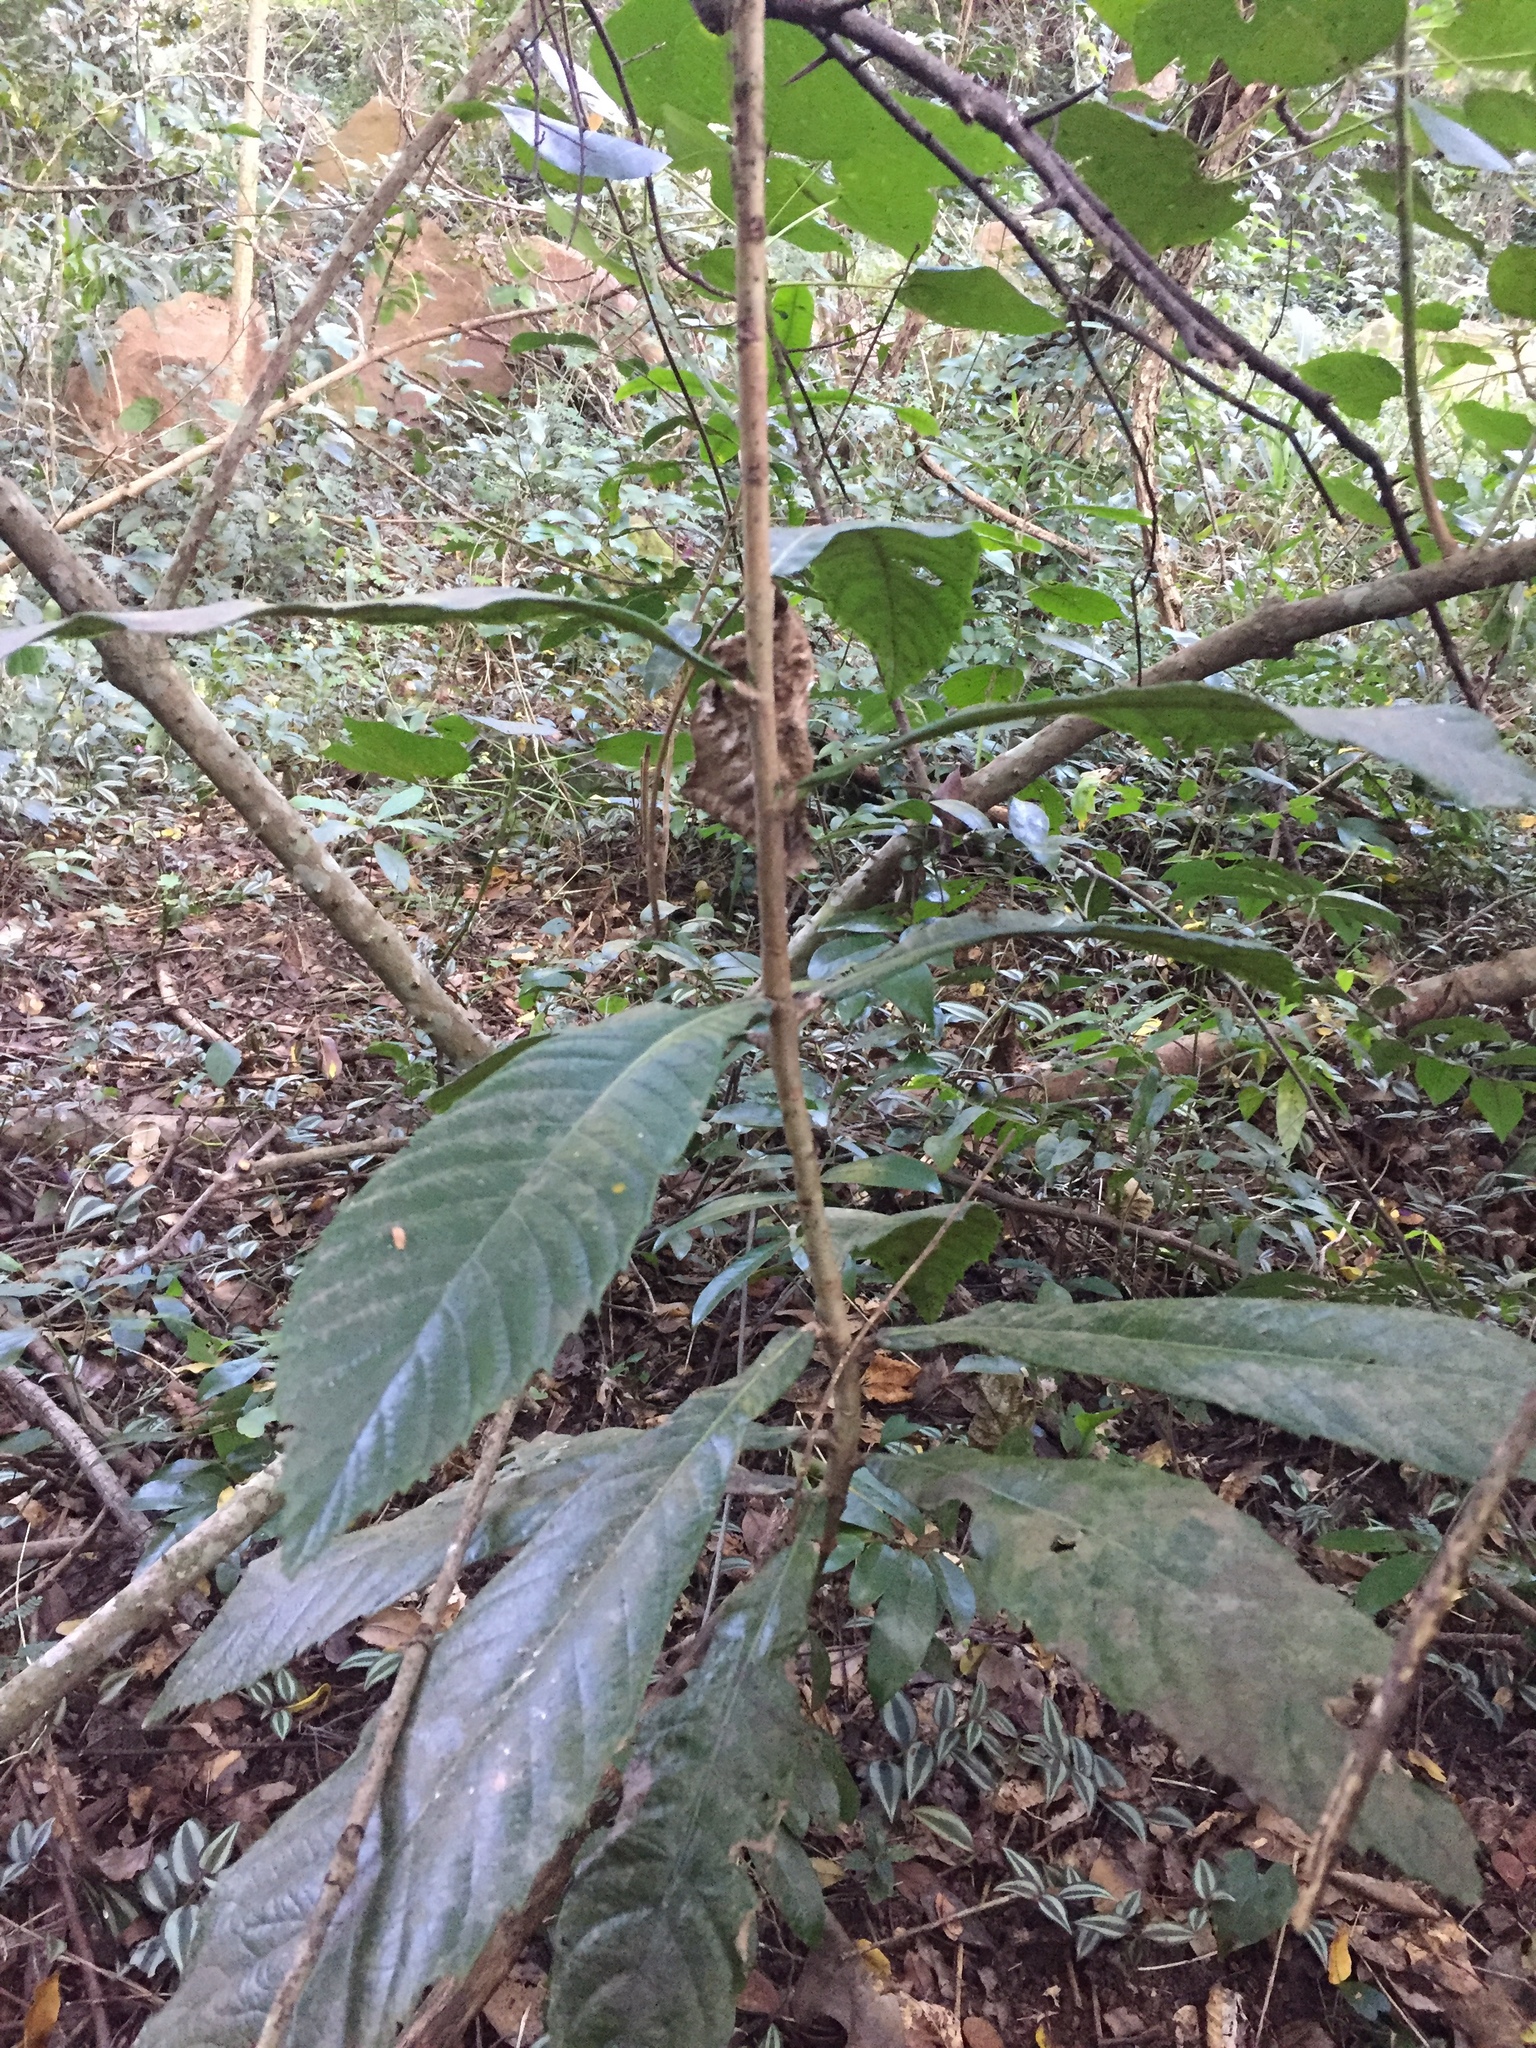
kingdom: Plantae
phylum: Tracheophyta
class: Magnoliopsida
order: Rosales
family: Rosaceae
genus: Rhaphiolepis
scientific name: Rhaphiolepis bibas
